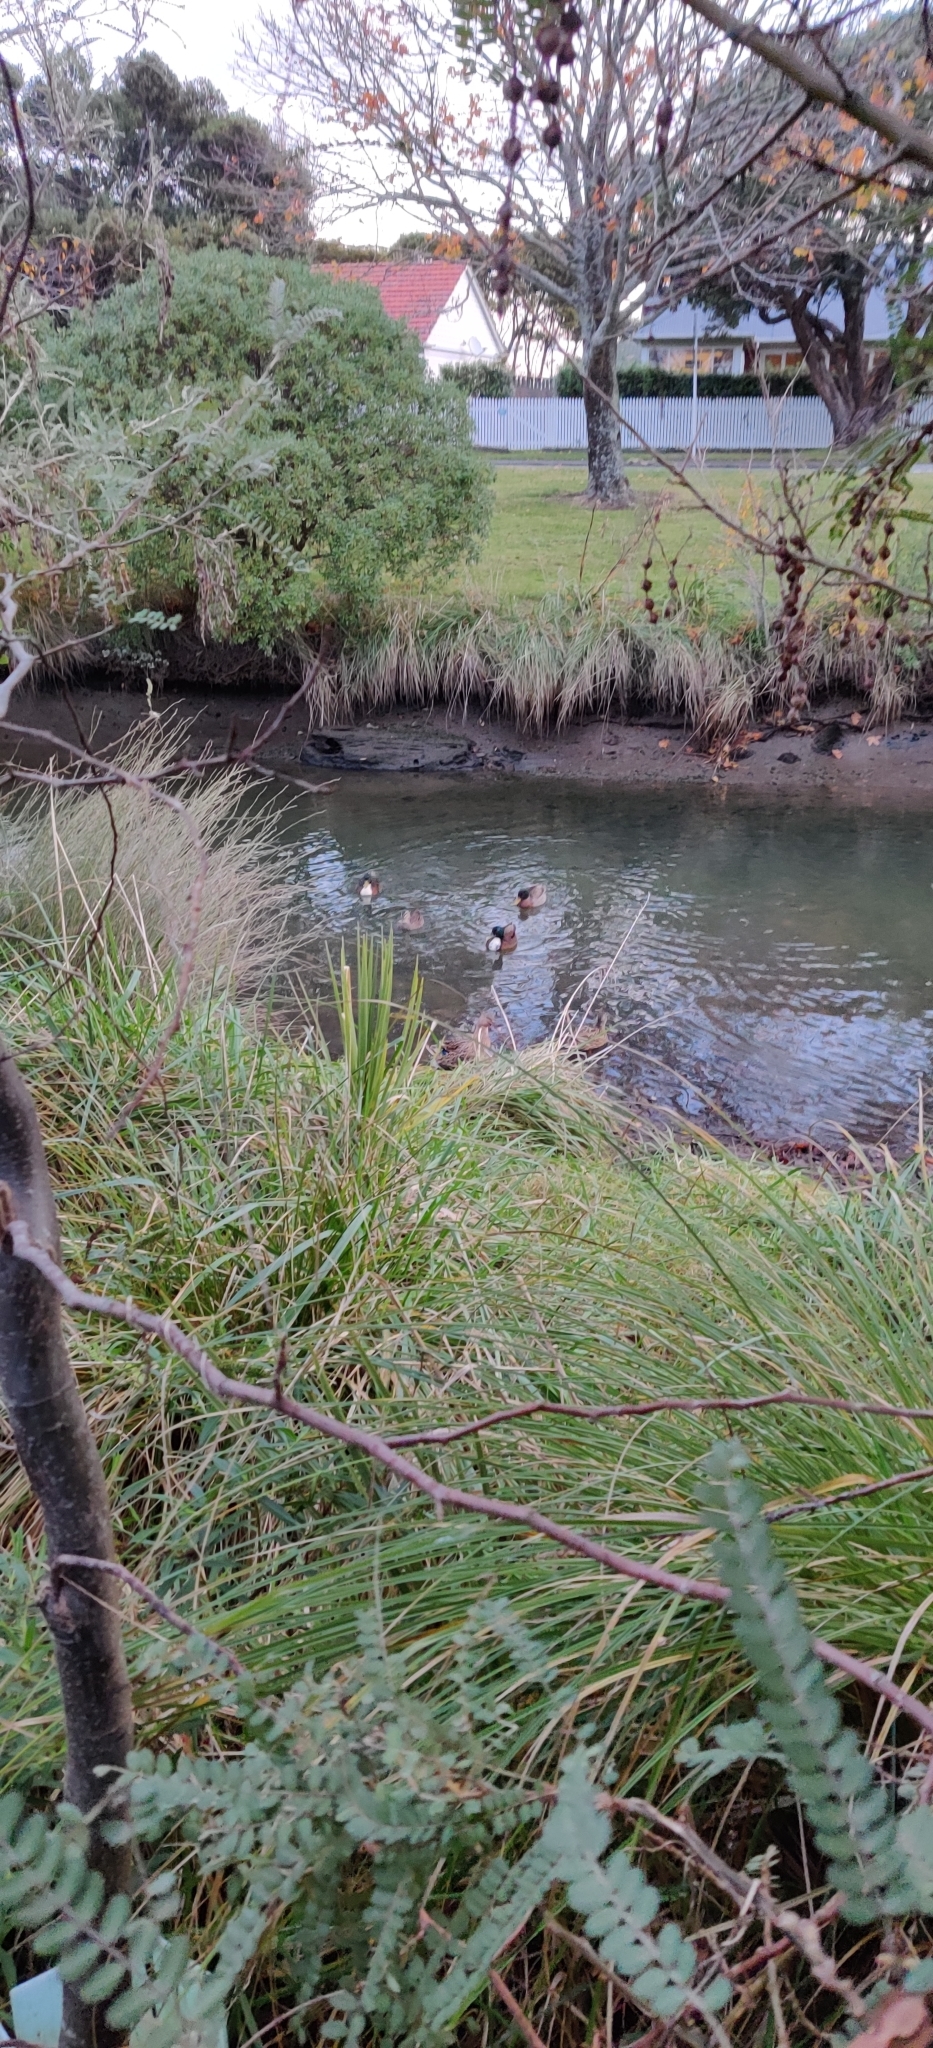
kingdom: Animalia
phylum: Chordata
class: Aves
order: Anseriformes
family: Anatidae
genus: Anas
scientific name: Anas platyrhynchos
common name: Mallard
